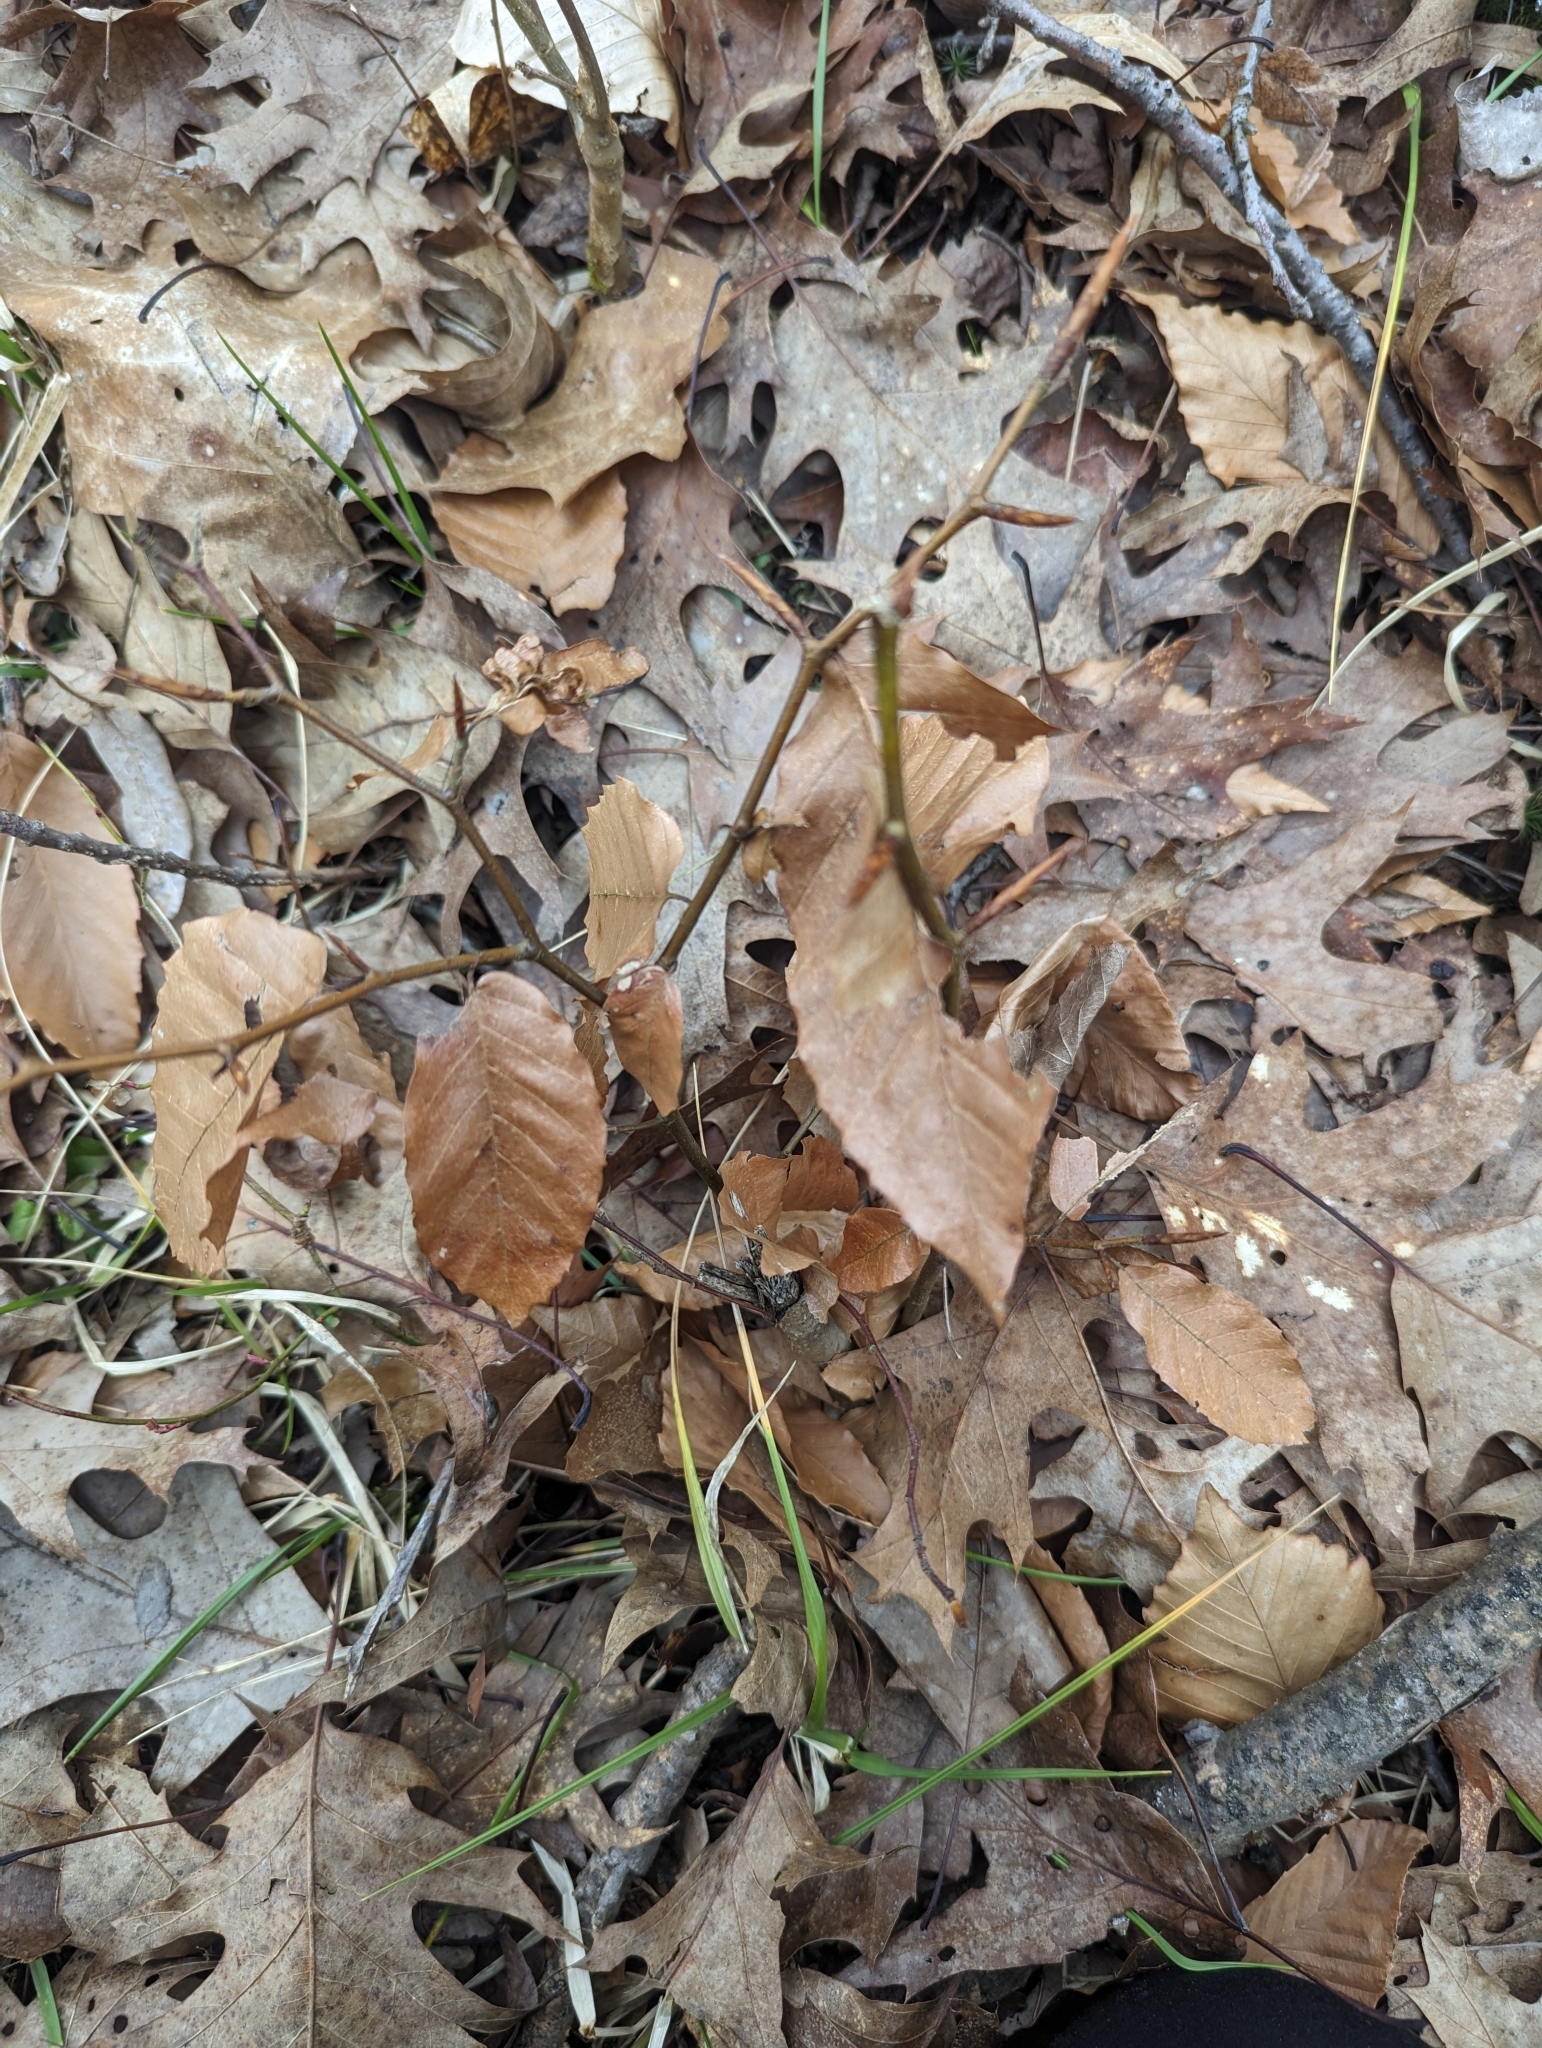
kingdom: Plantae
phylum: Tracheophyta
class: Magnoliopsida
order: Fagales
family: Fagaceae
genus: Fagus
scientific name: Fagus grandifolia
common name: American beech
